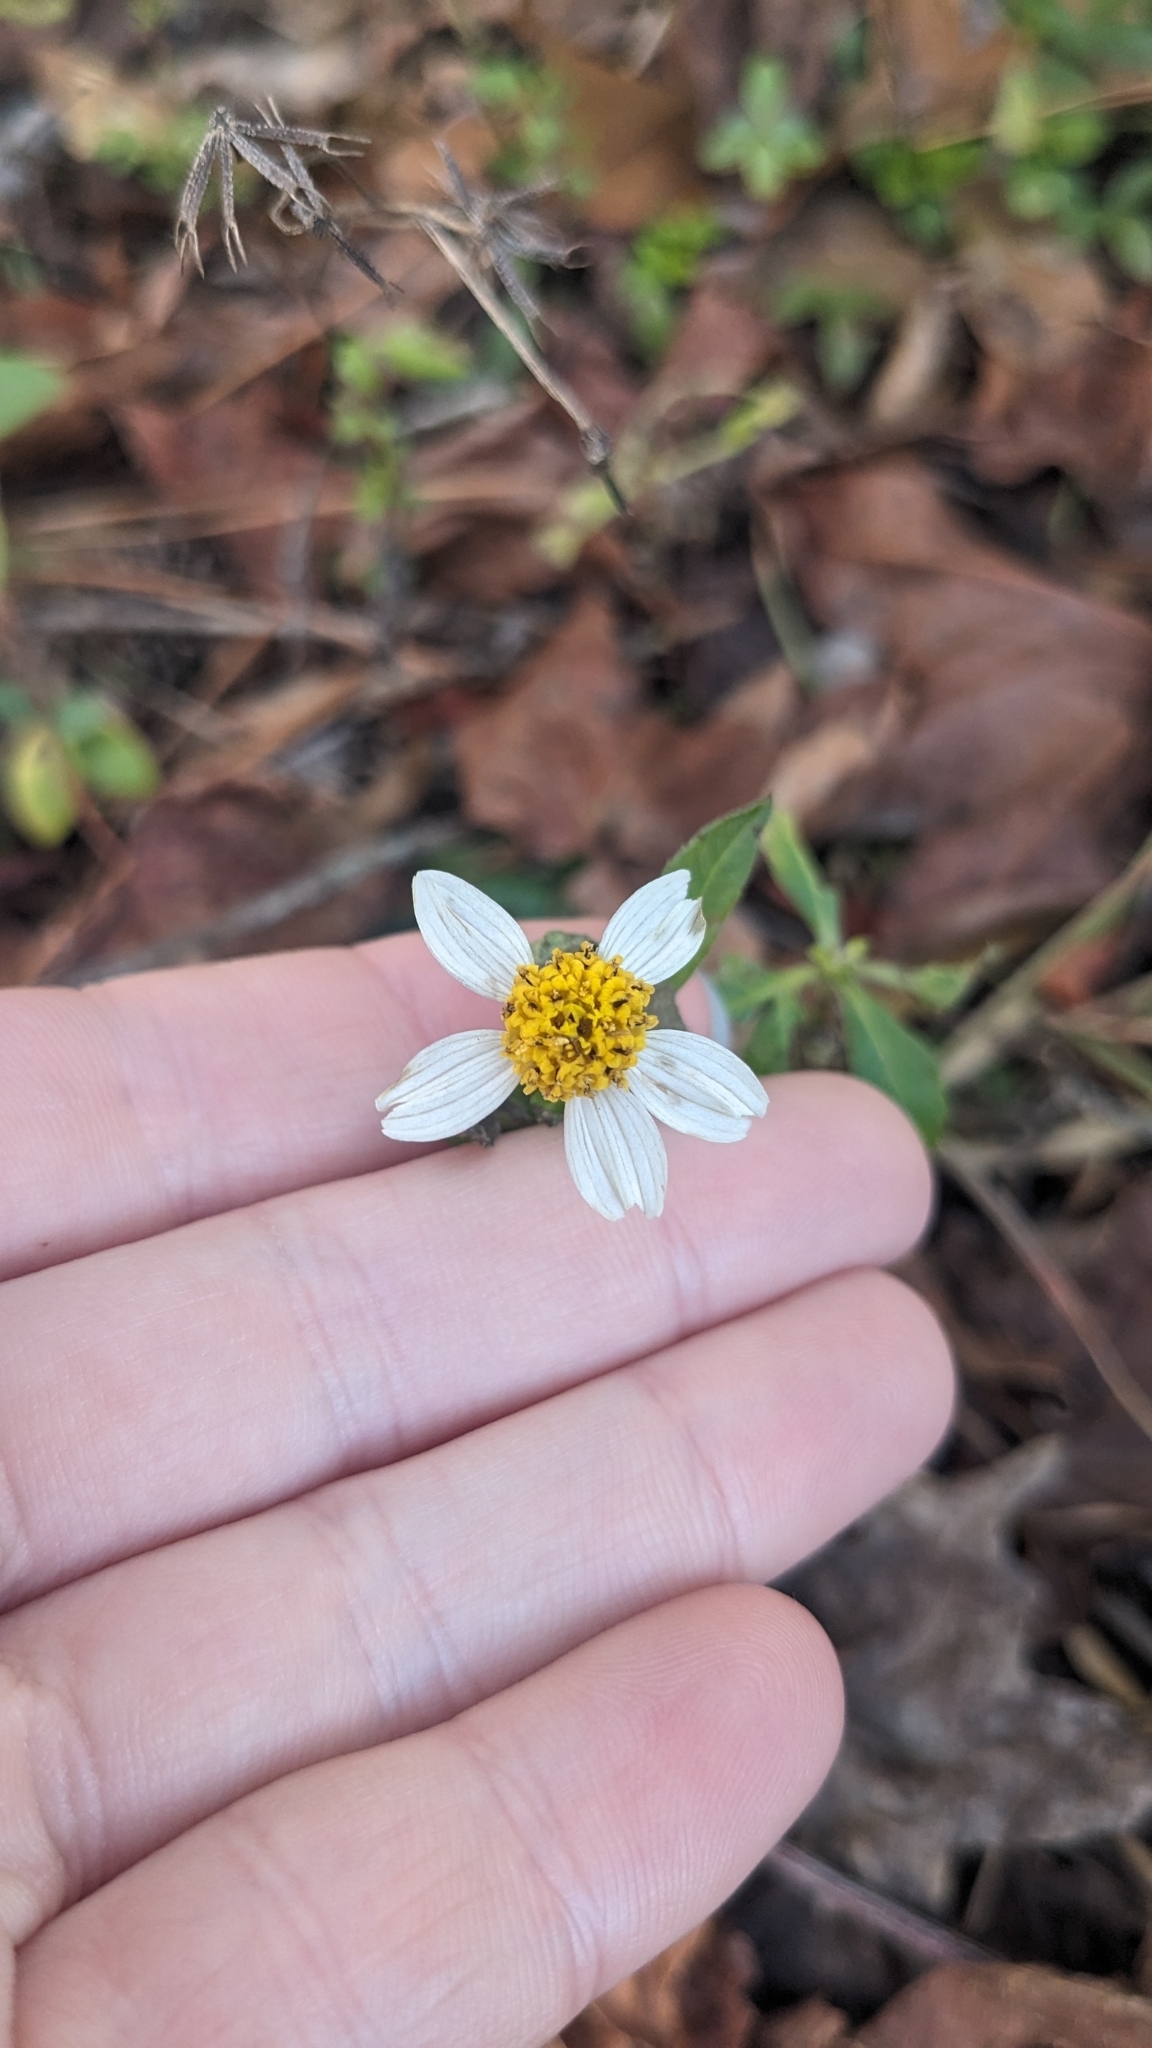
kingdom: Plantae
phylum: Tracheophyta
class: Magnoliopsida
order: Asterales
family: Asteraceae
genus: Bidens
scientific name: Bidens alba
